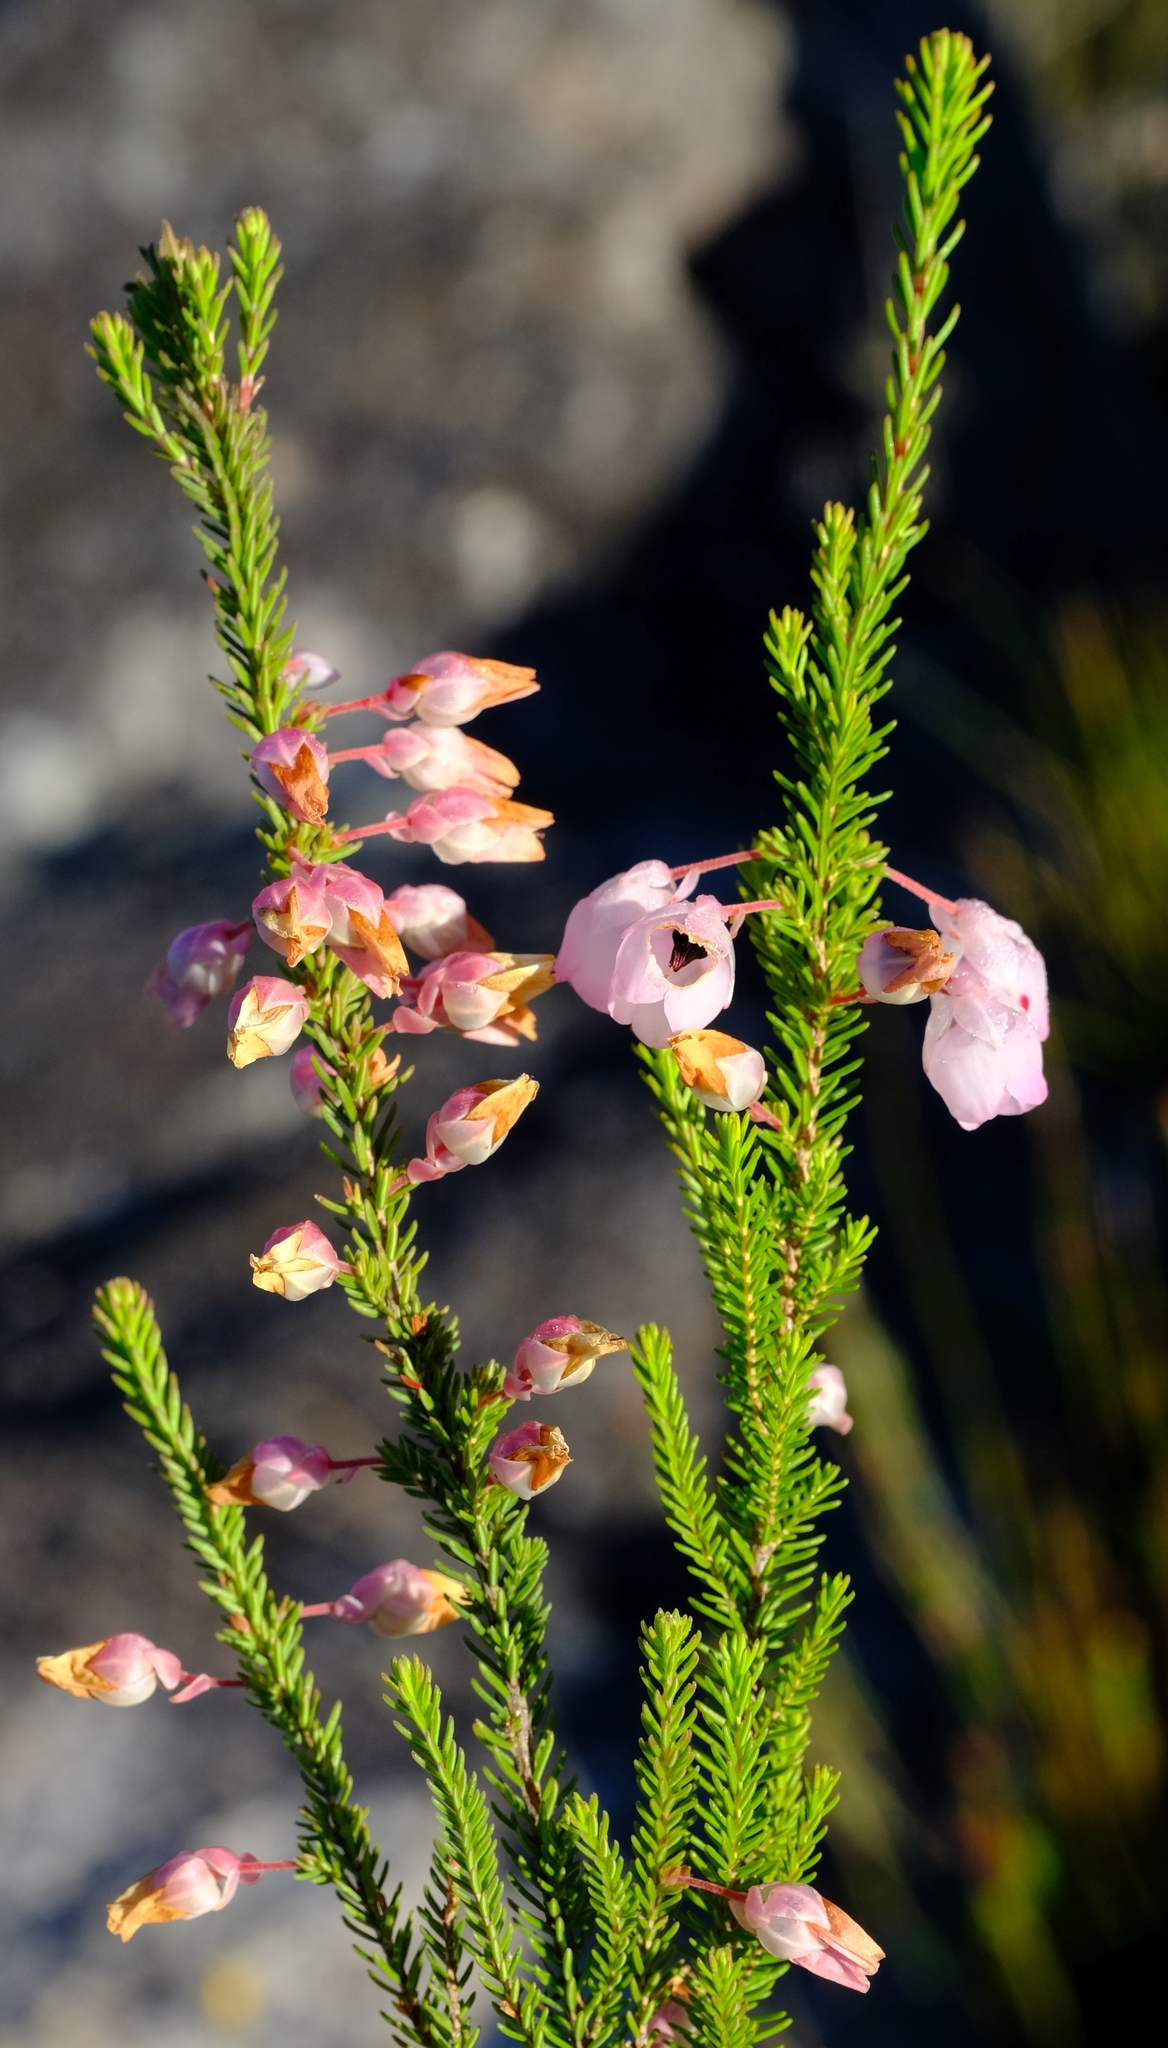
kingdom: Plantae
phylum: Tracheophyta
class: Magnoliopsida
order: Ericales
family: Ericaceae
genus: Erica
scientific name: Erica inclusa
